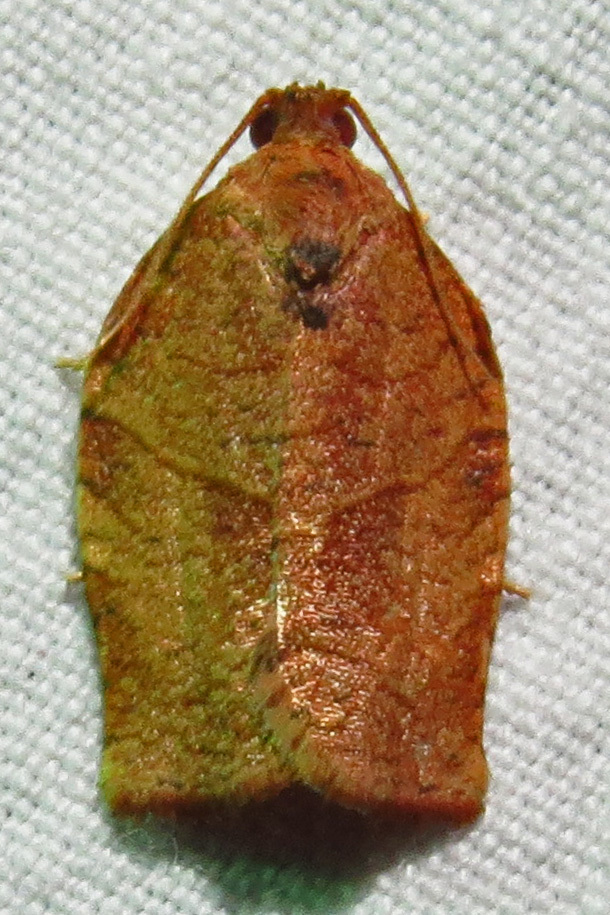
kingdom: Animalia
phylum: Arthropoda
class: Insecta
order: Lepidoptera
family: Tortricidae
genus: Choristoneura
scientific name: Choristoneura rosaceana
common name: Oblique-banded leafroller moth
